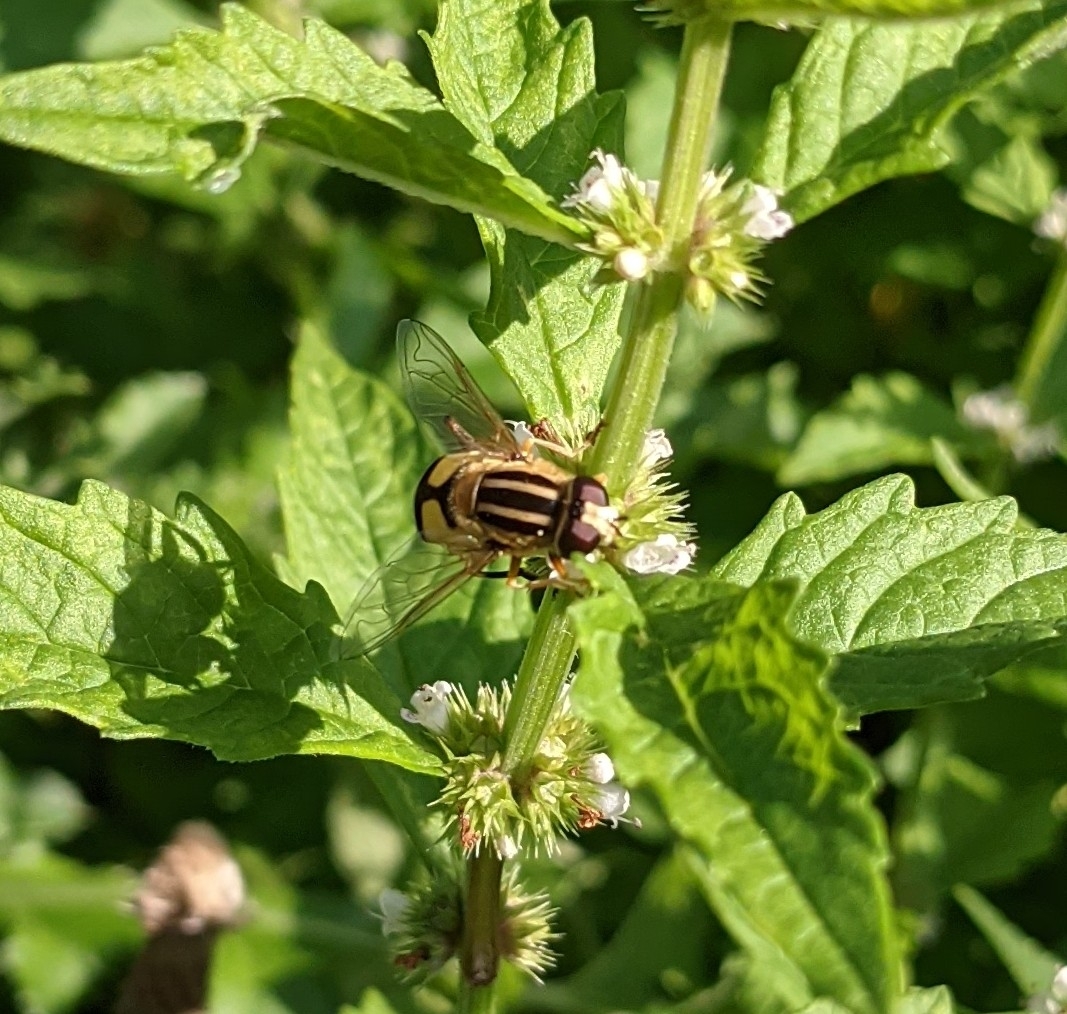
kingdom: Animalia
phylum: Arthropoda
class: Insecta
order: Diptera
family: Syrphidae
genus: Helophilus
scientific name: Helophilus trivittatus
